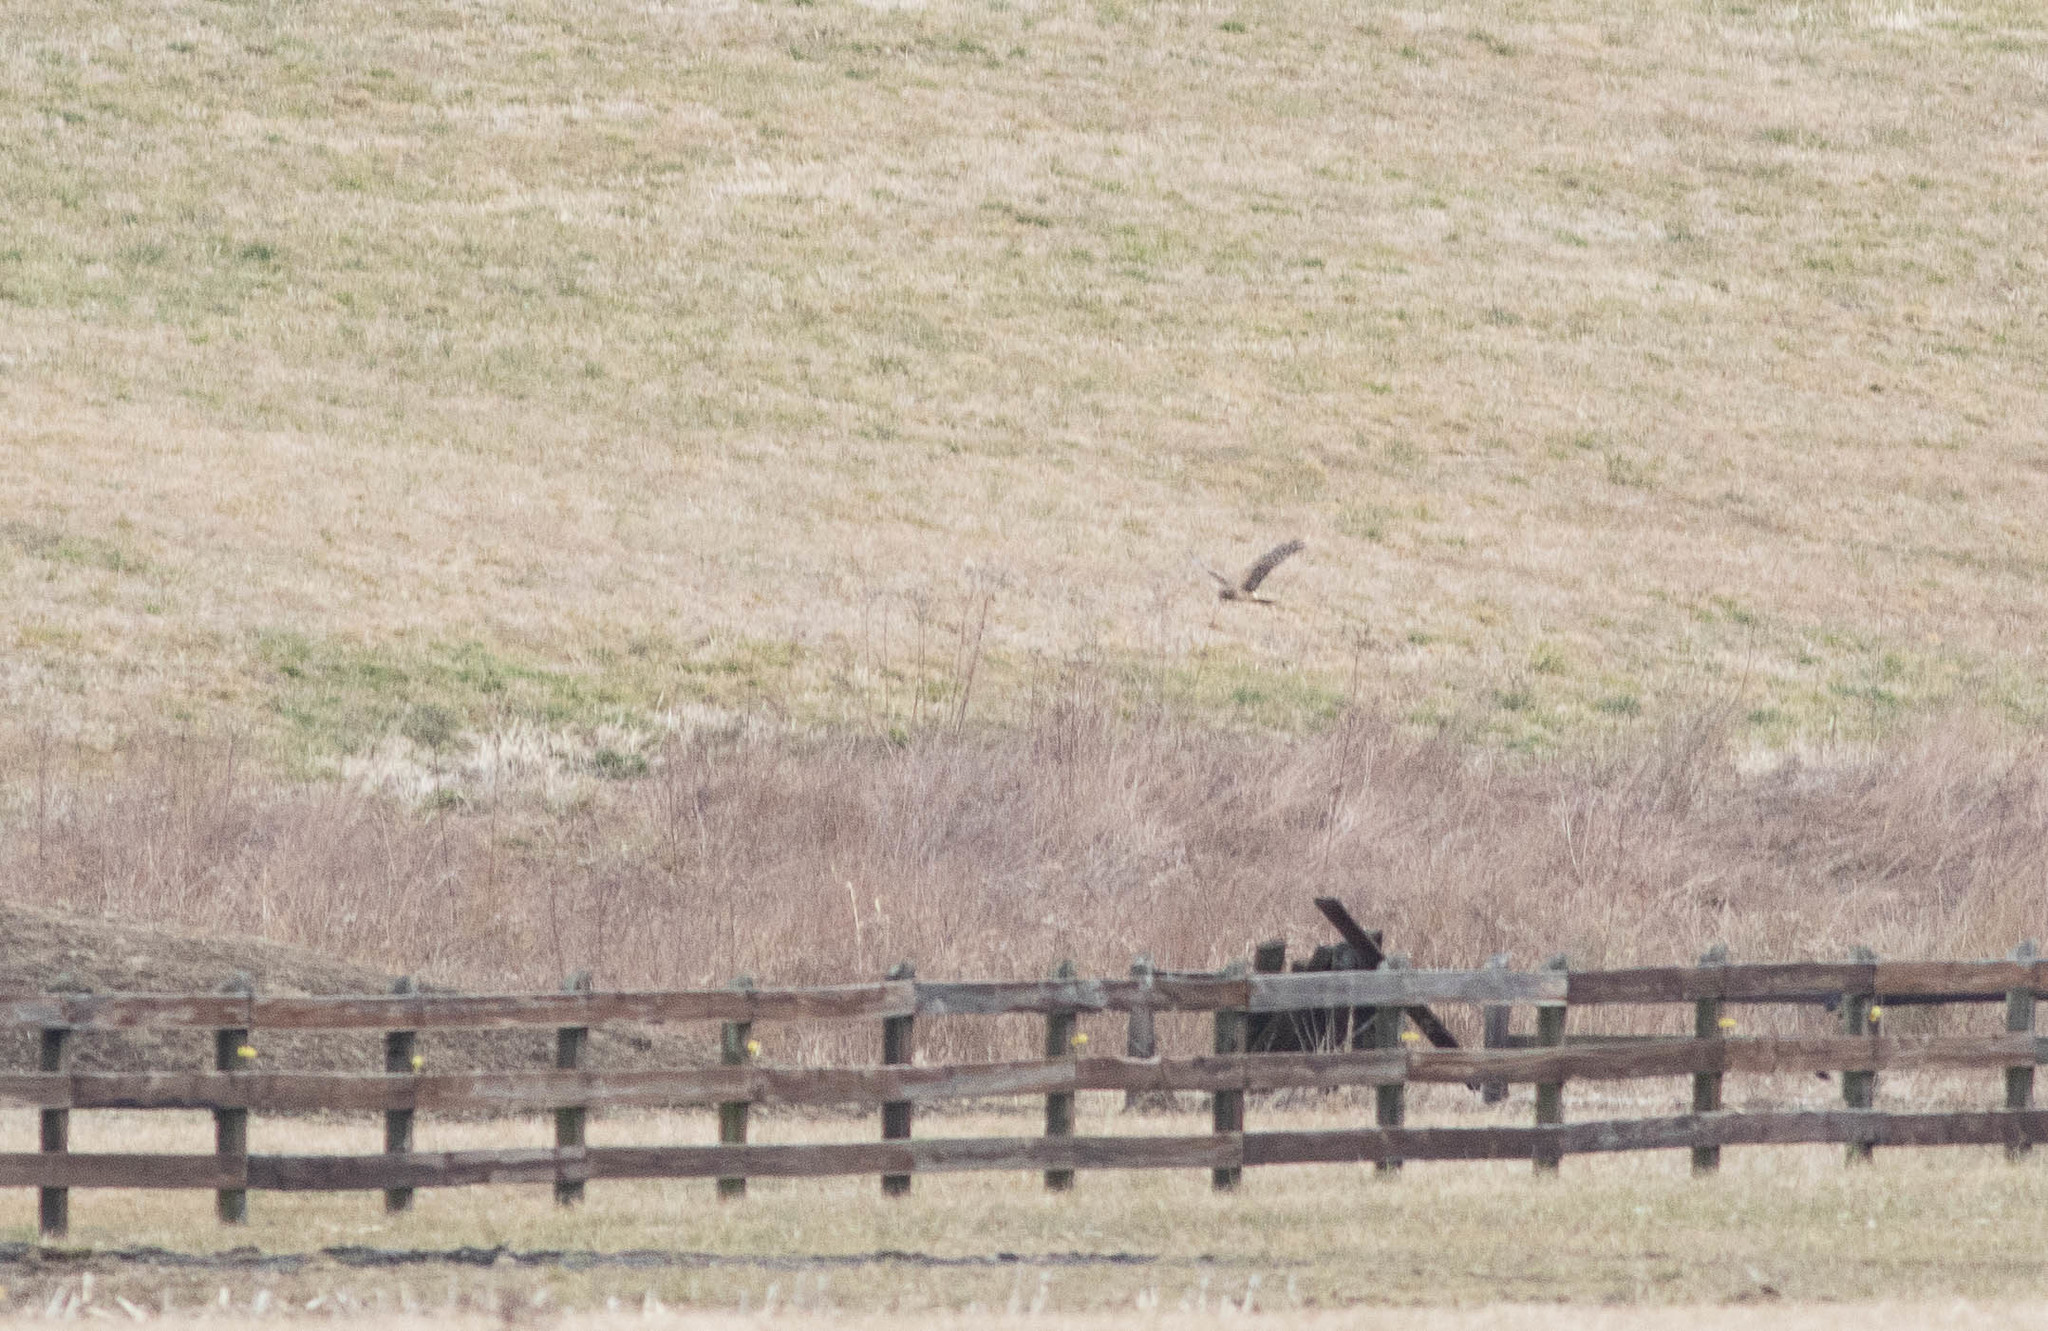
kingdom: Animalia
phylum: Chordata
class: Aves
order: Accipitriformes
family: Accipitridae
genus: Circus
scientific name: Circus cyaneus
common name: Hen harrier
